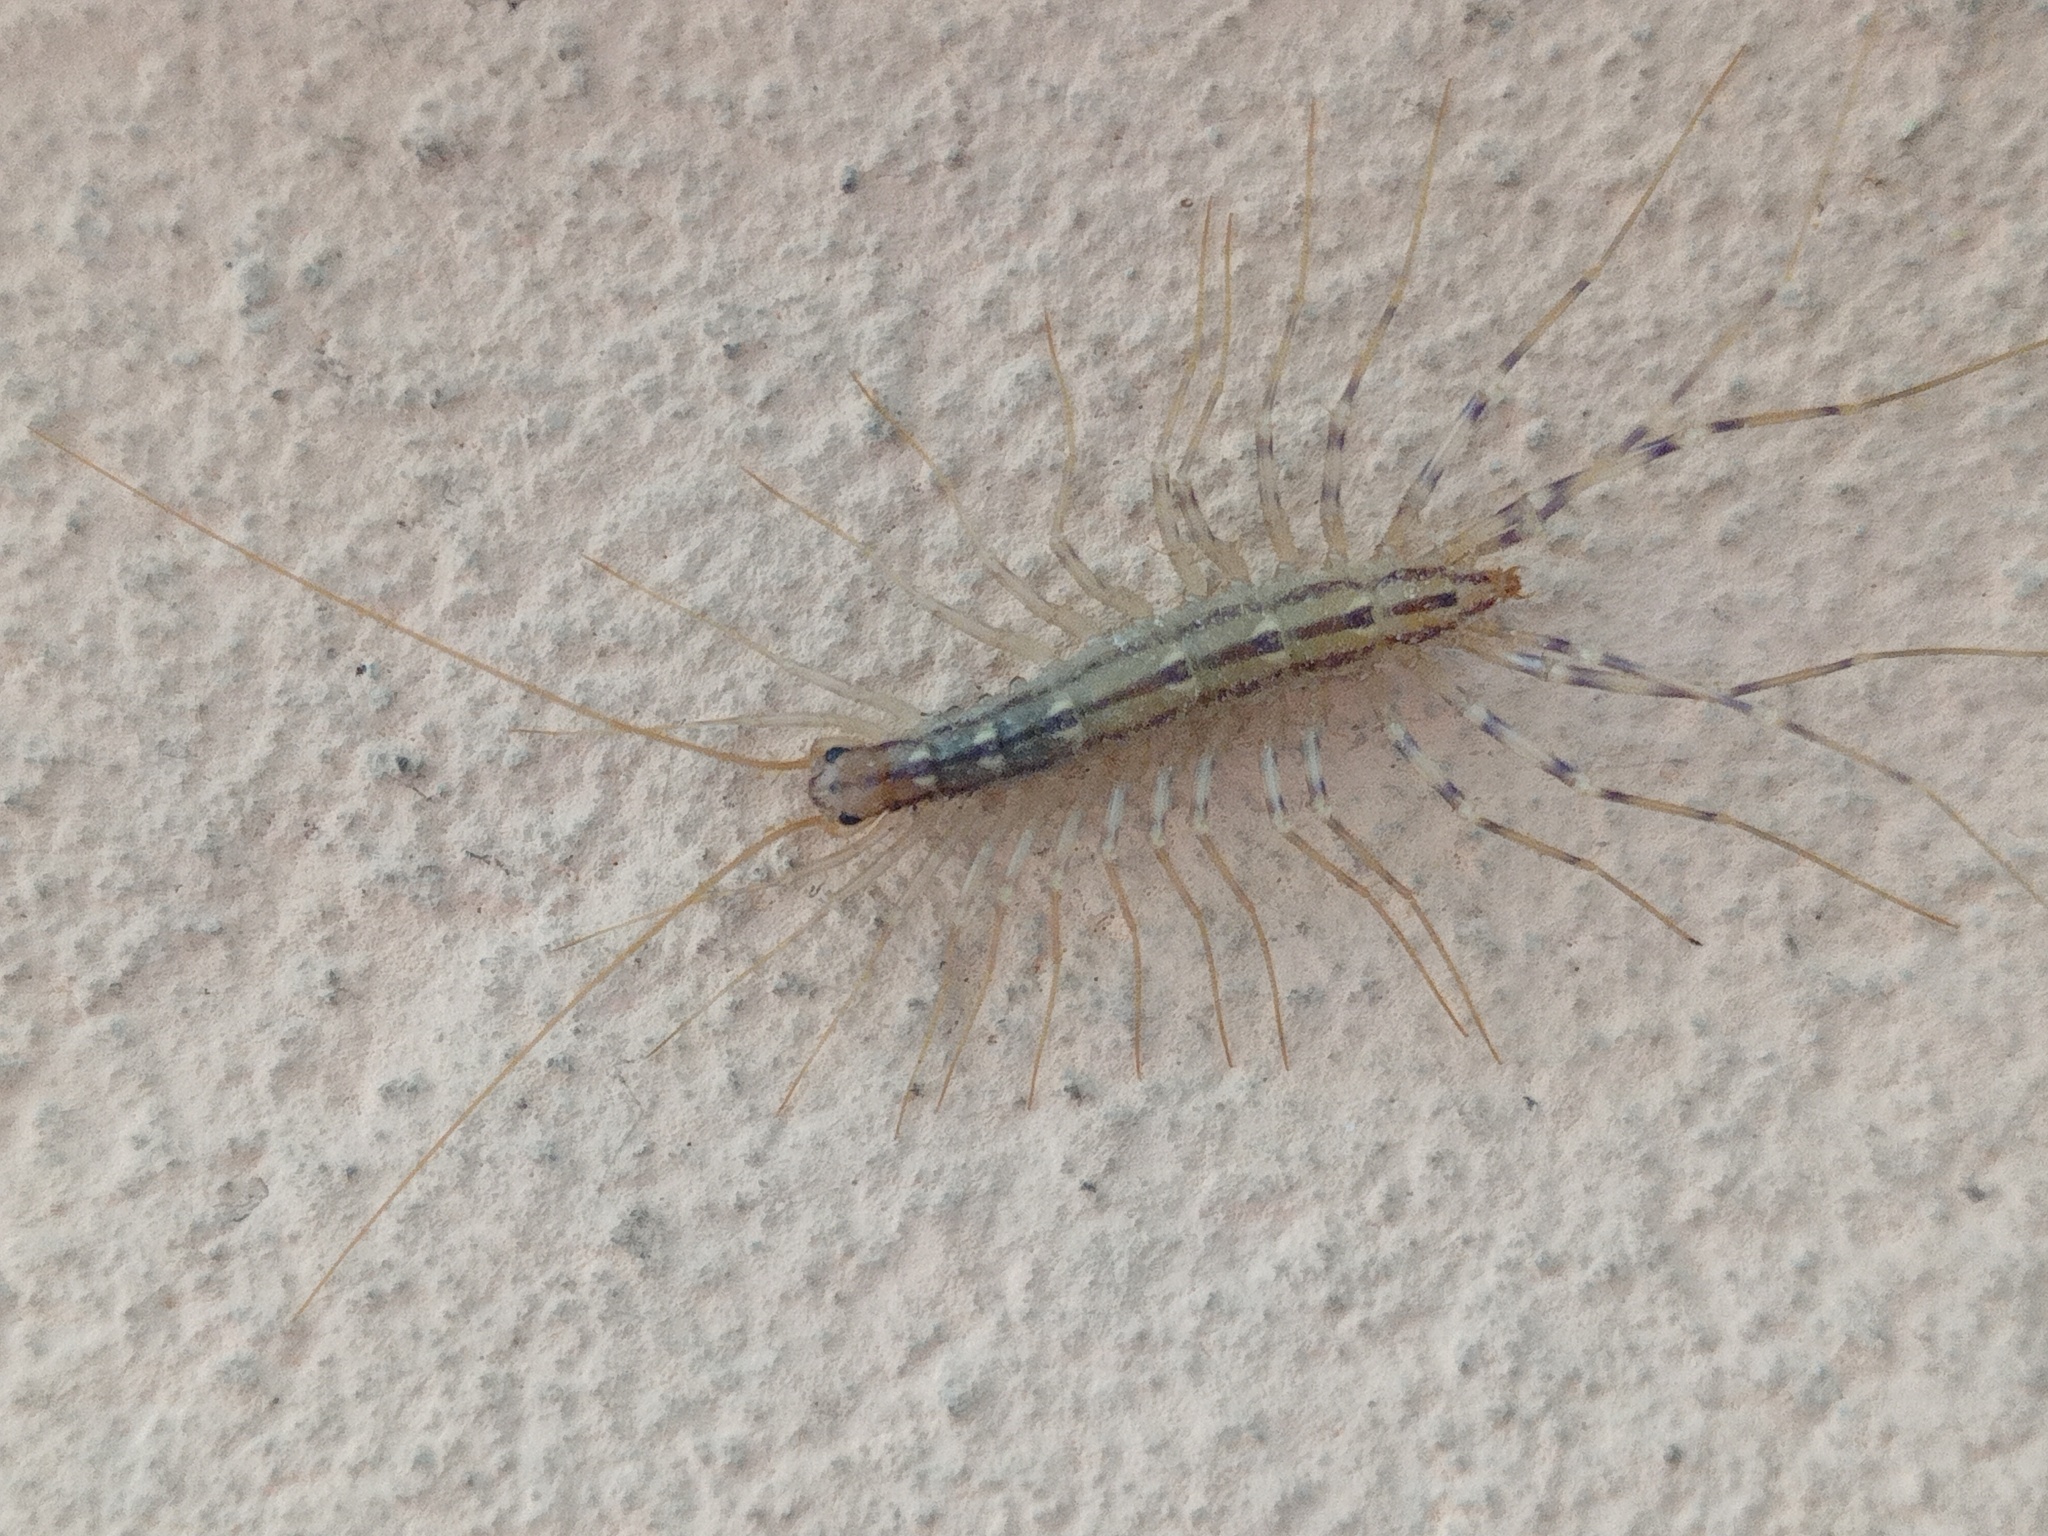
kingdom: Animalia
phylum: Arthropoda
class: Chilopoda
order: Scutigeromorpha
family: Scutigeridae
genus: Scutigera
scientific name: Scutigera coleoptrata
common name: House centipede
